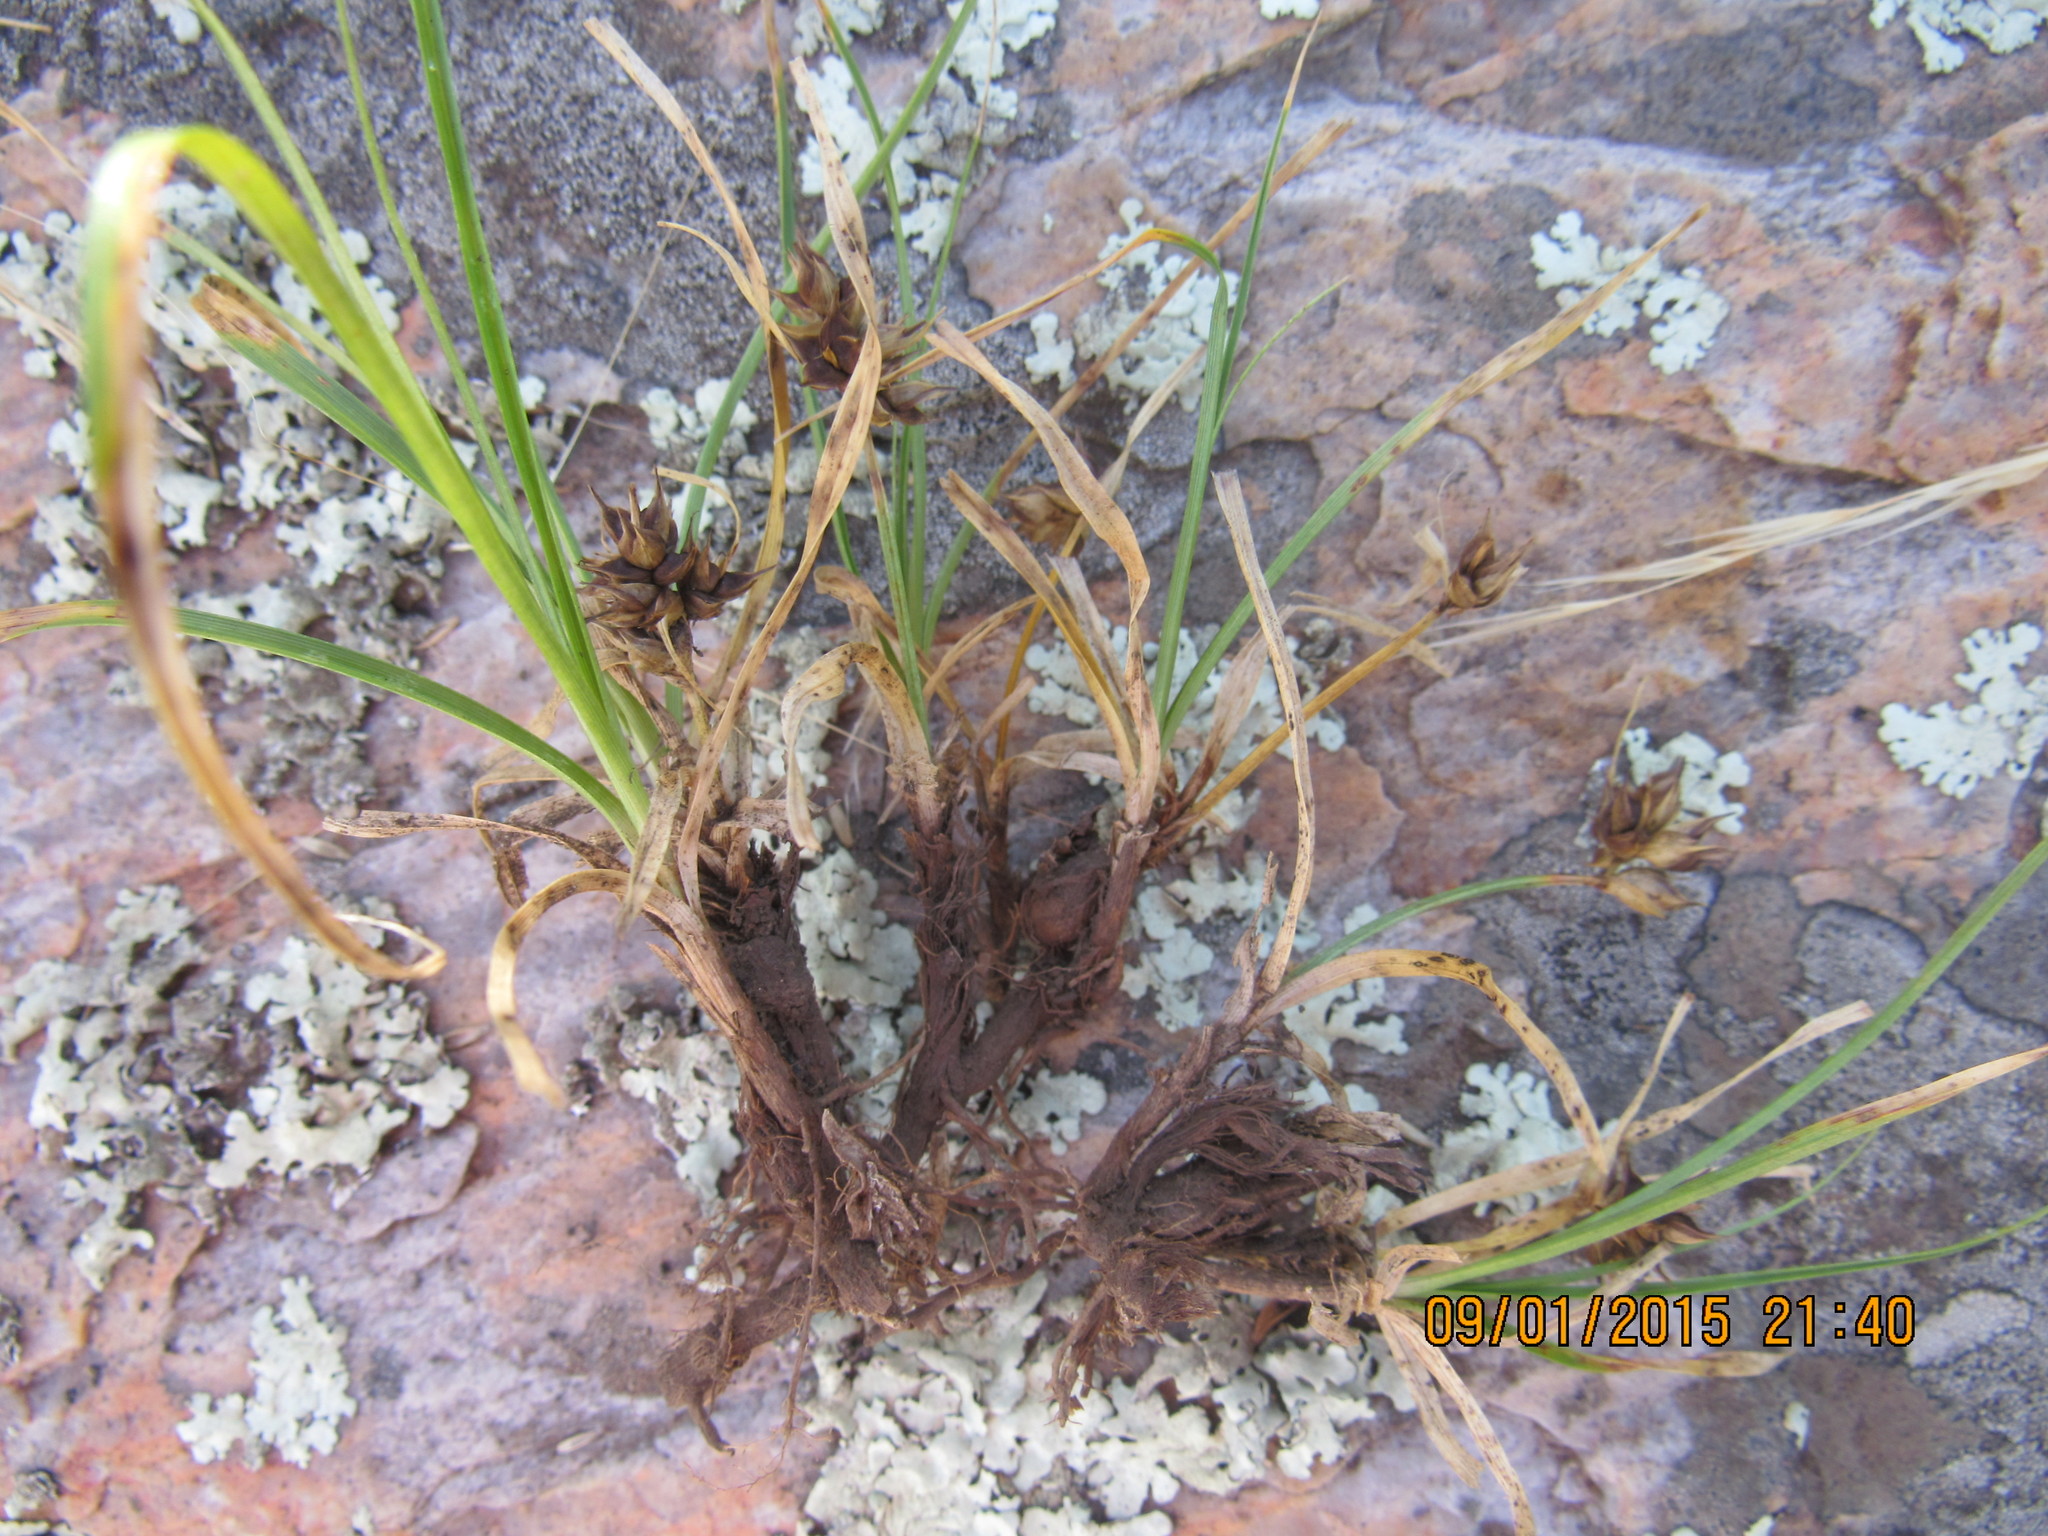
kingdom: Plantae
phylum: Tracheophyta
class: Liliopsida
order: Poales
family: Cyperaceae
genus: Carex
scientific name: Carex rupicola
